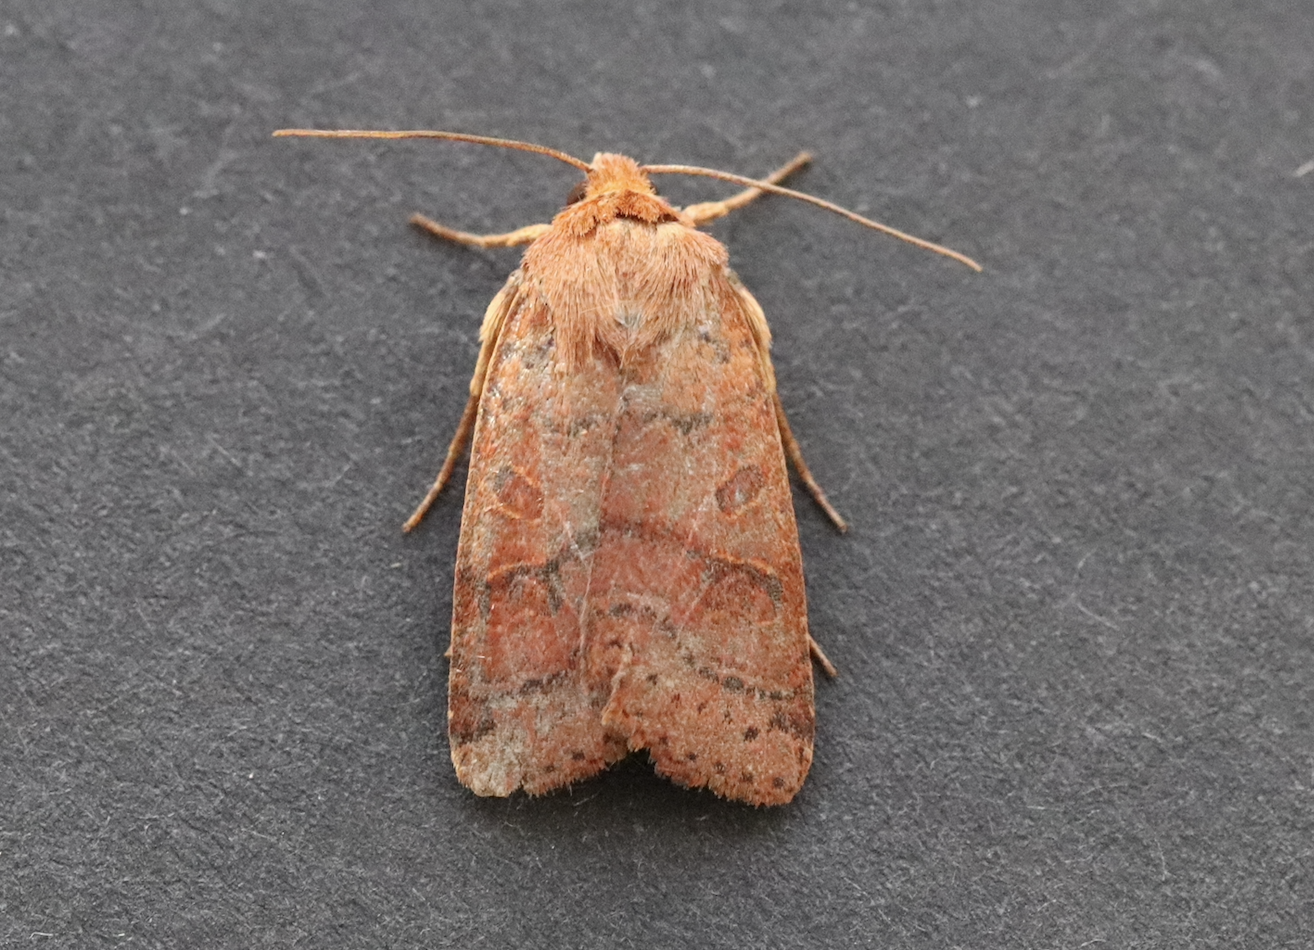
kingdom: Animalia
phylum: Arthropoda
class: Insecta
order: Lepidoptera
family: Noctuidae
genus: Agrochola
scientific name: Agrochola nitida
